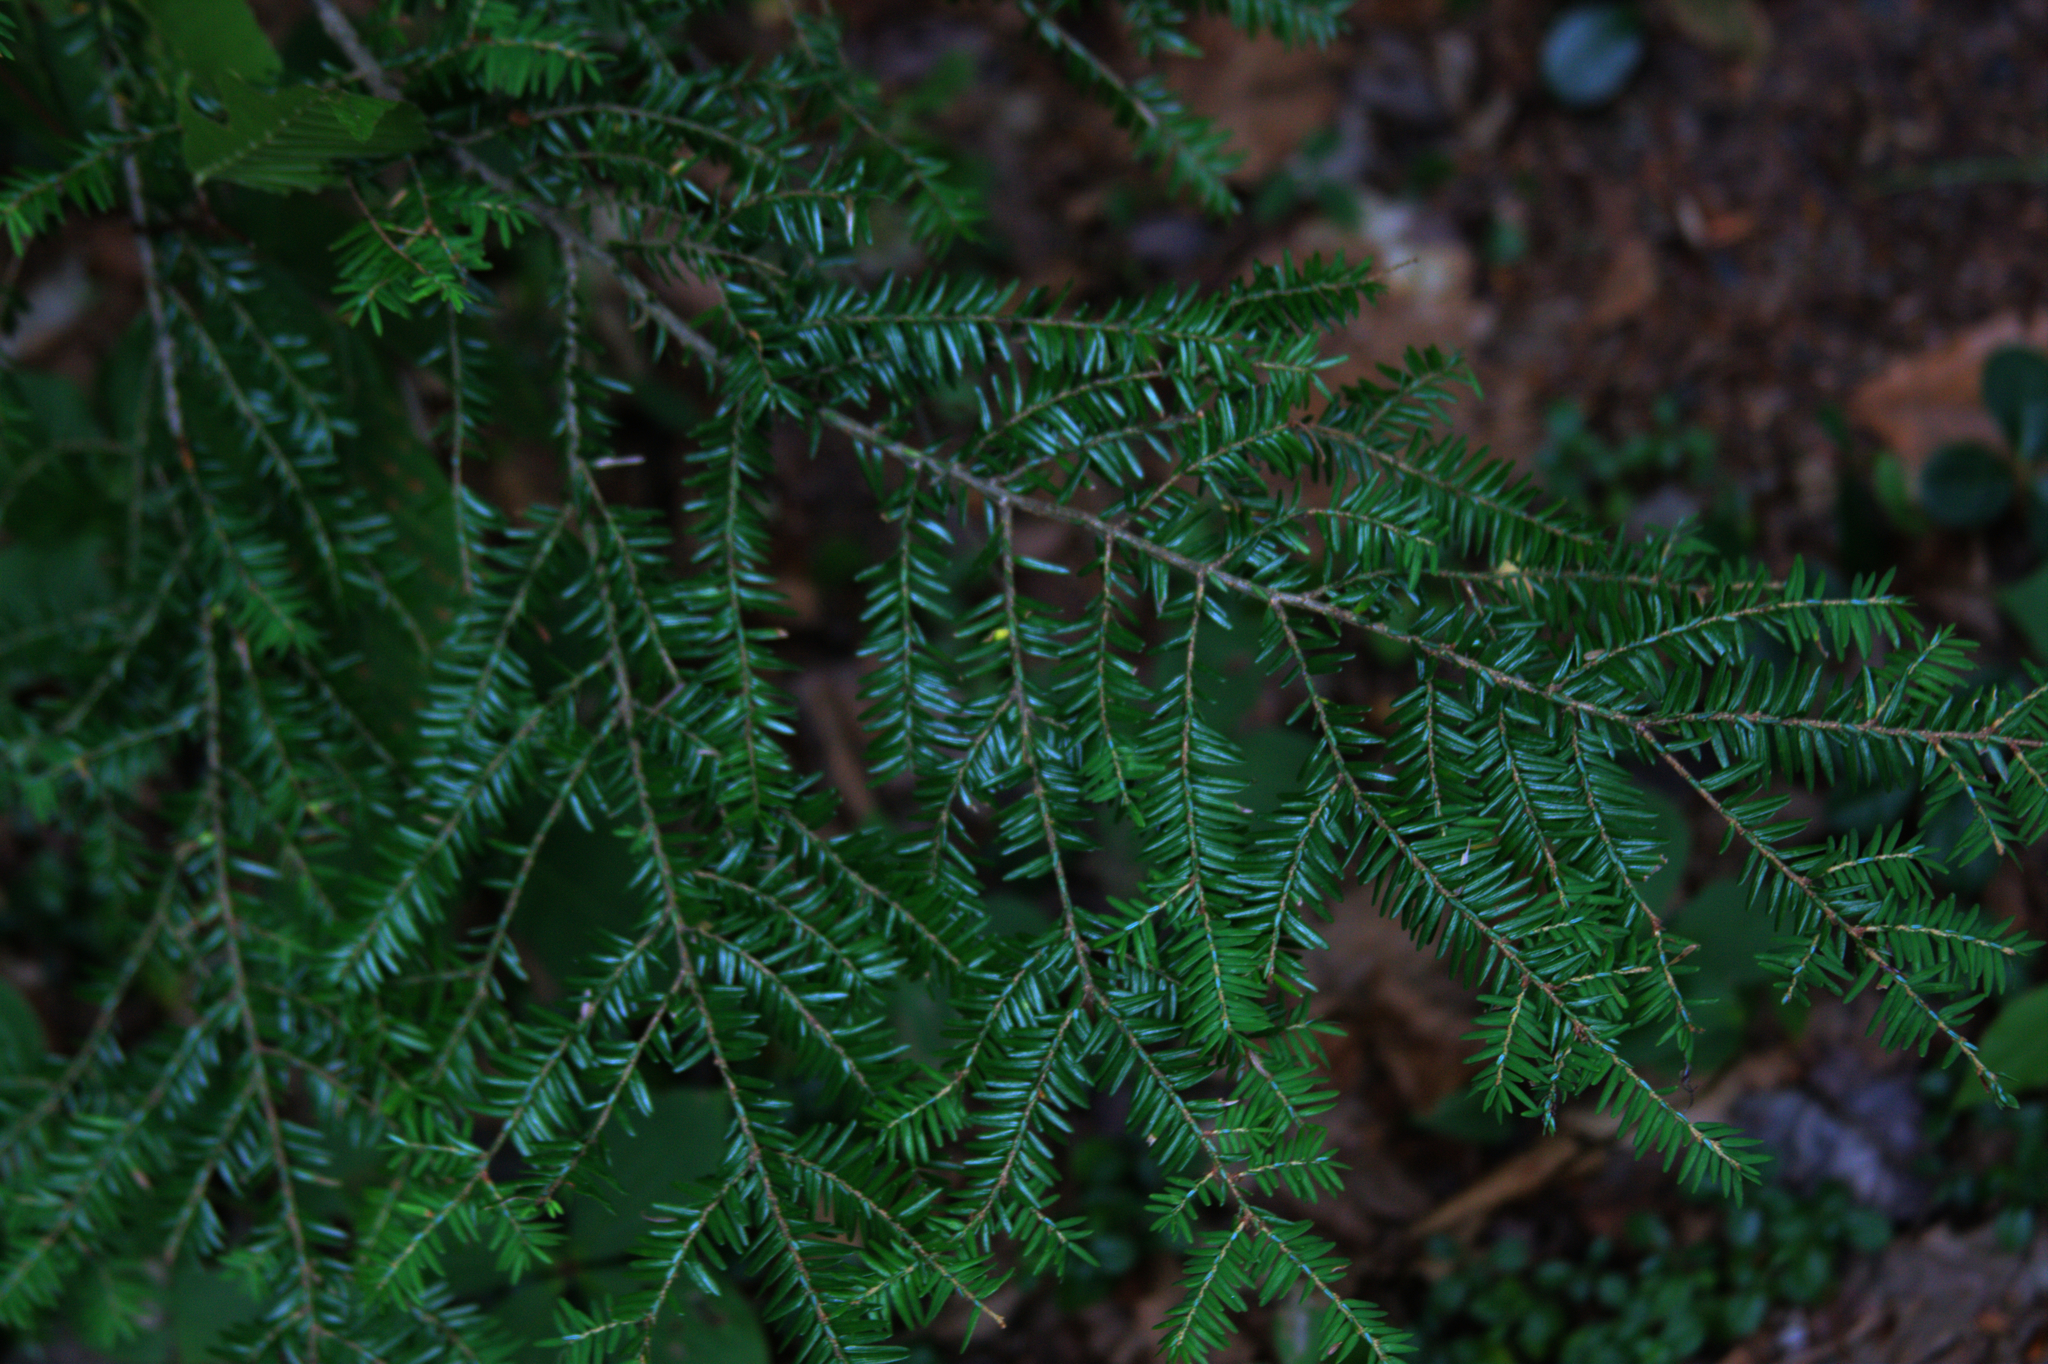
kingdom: Plantae
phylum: Tracheophyta
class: Pinopsida
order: Pinales
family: Pinaceae
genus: Tsuga
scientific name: Tsuga canadensis
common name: Eastern hemlock
